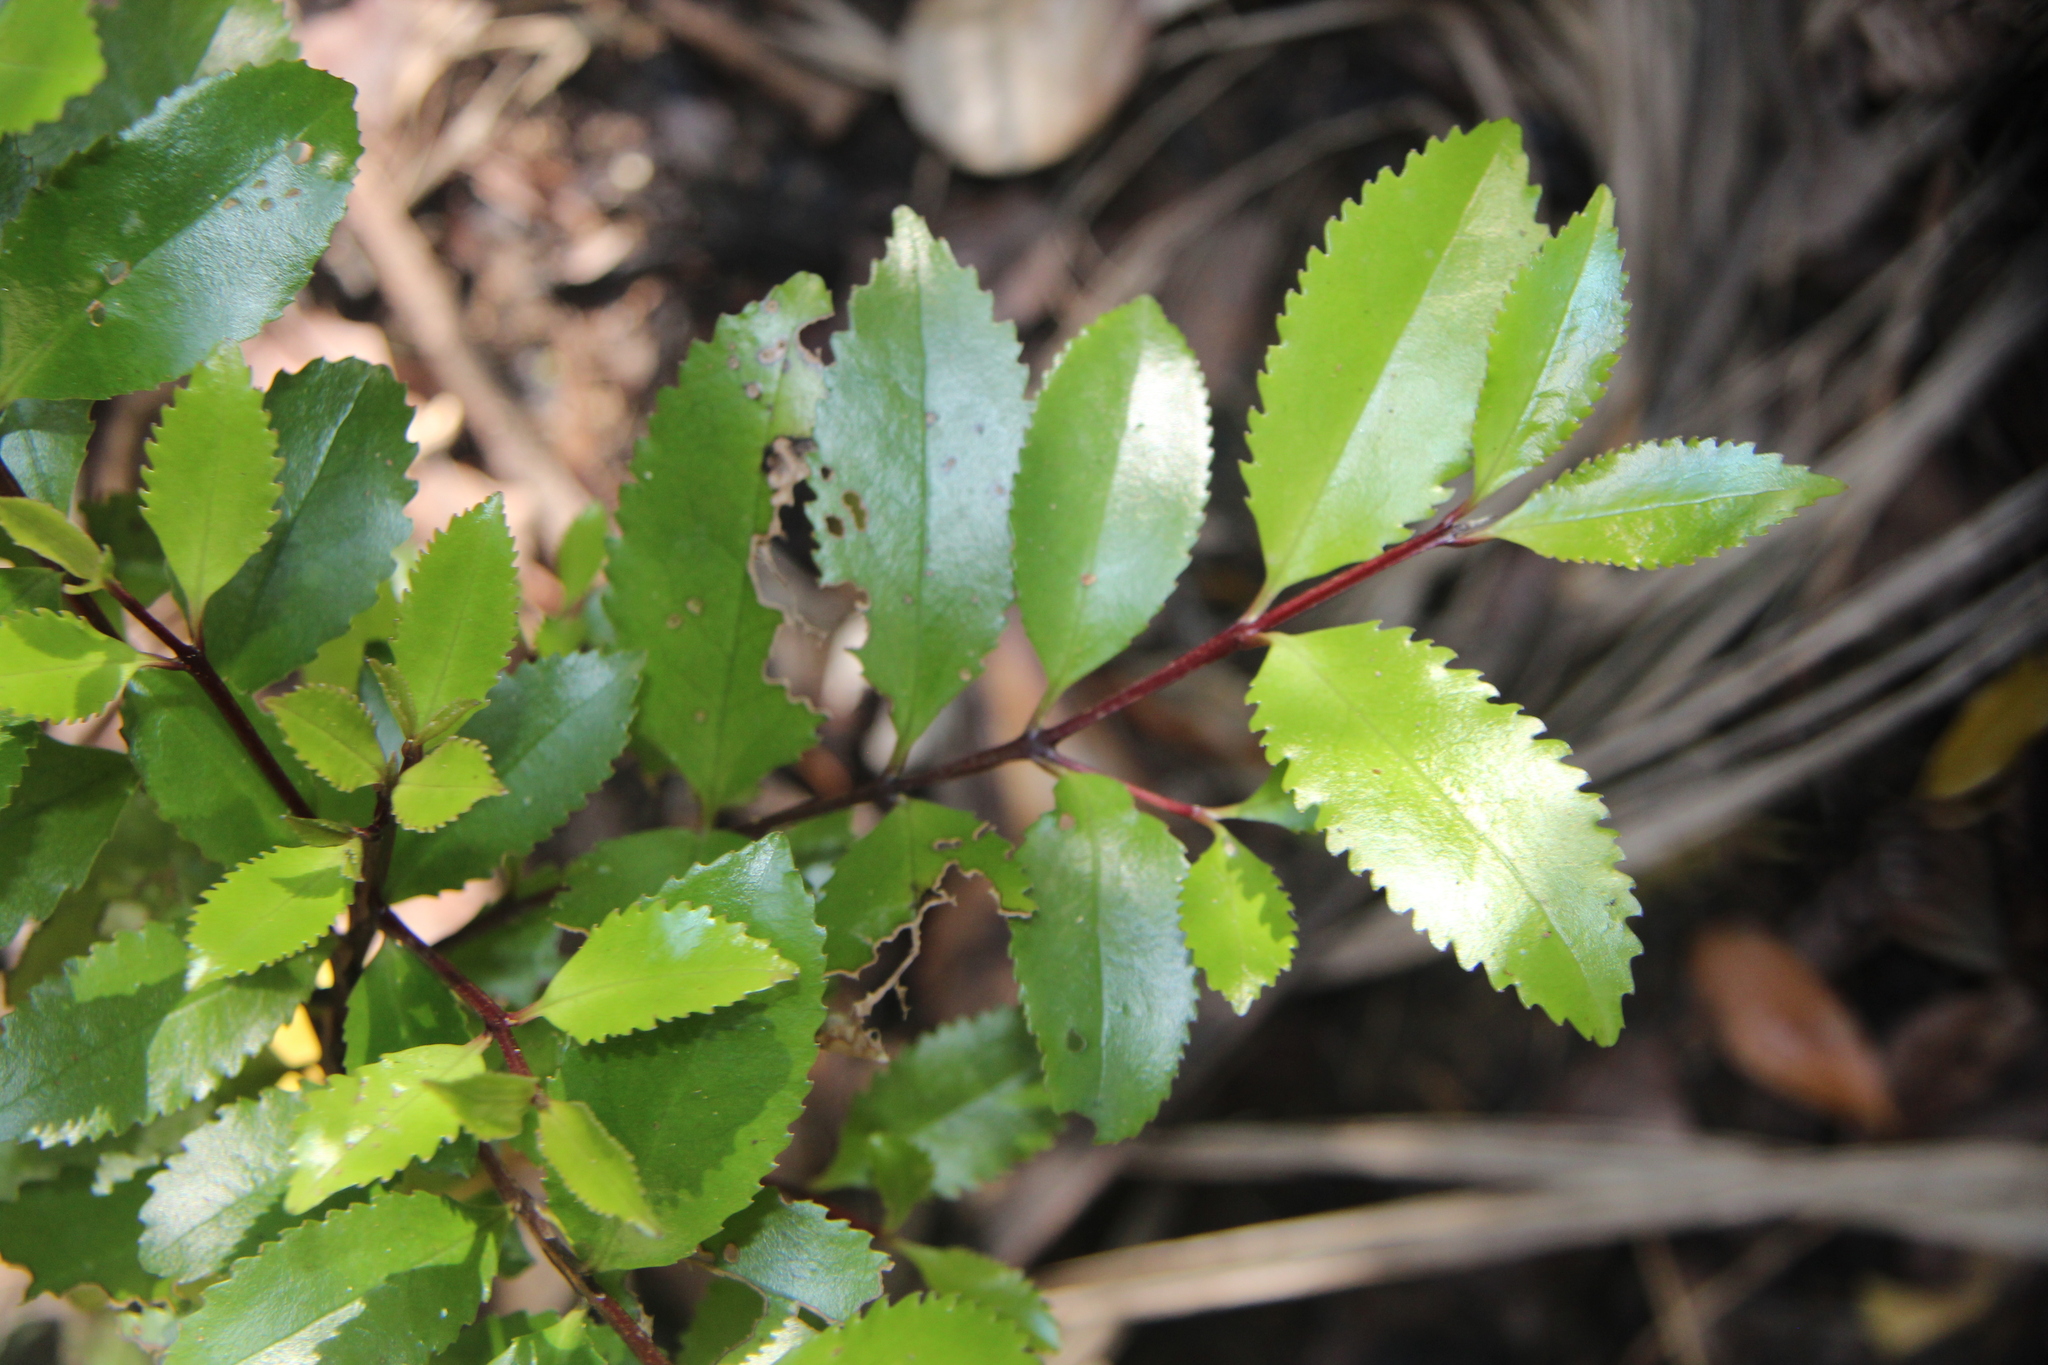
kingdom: Plantae
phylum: Tracheophyta
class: Magnoliopsida
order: Laurales
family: Atherospermataceae
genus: Laurelia
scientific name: Laurelia novae-zelandiae
